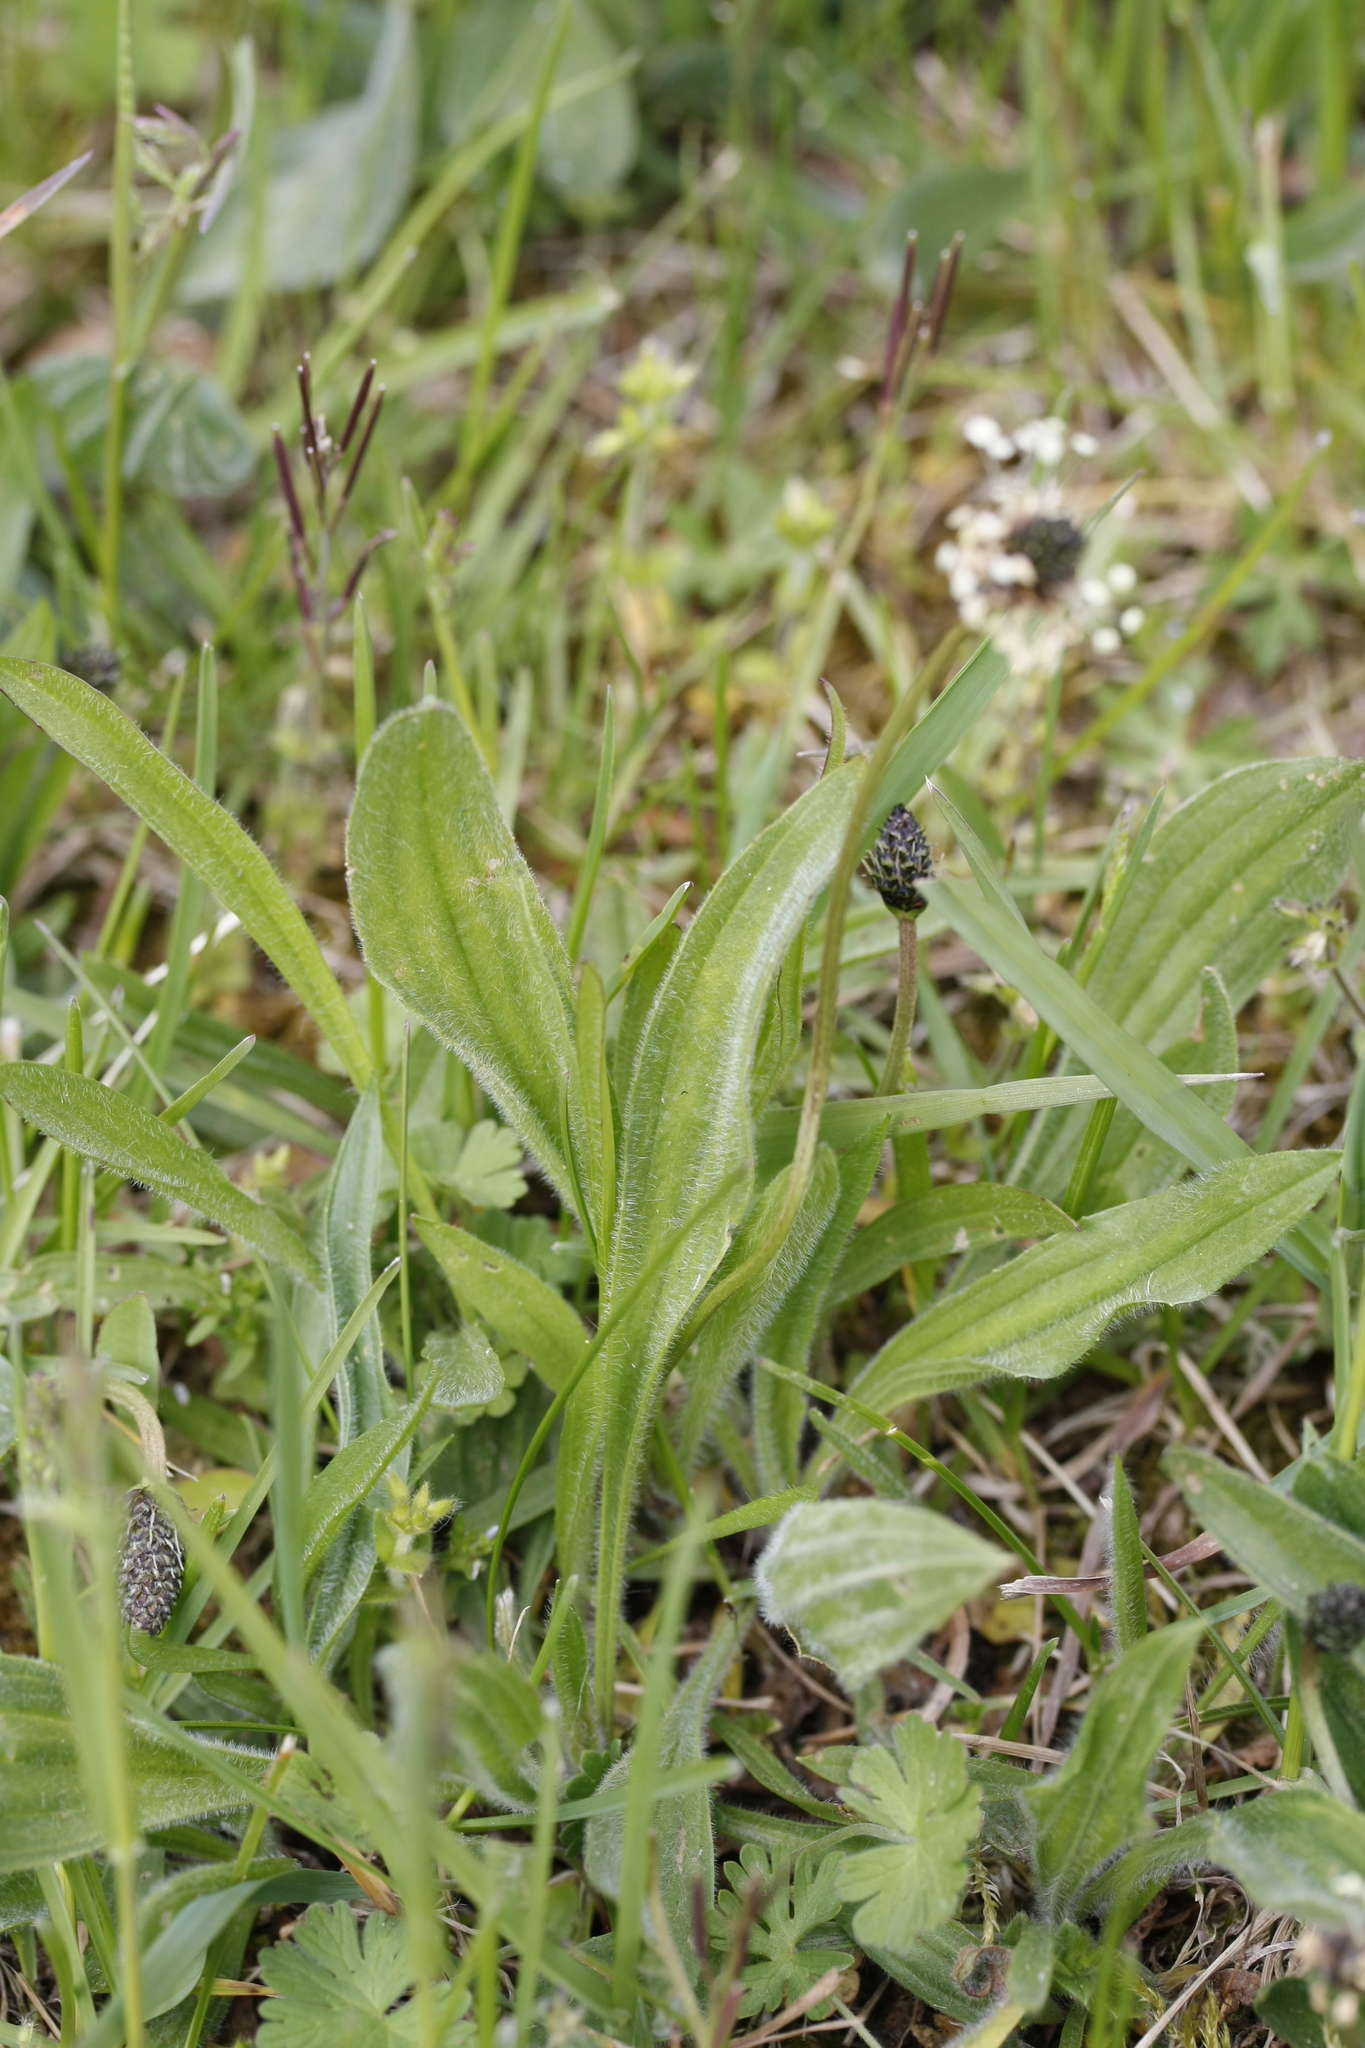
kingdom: Plantae
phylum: Tracheophyta
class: Magnoliopsida
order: Lamiales
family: Plantaginaceae
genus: Plantago
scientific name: Plantago lanceolata
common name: Ribwort plantain
